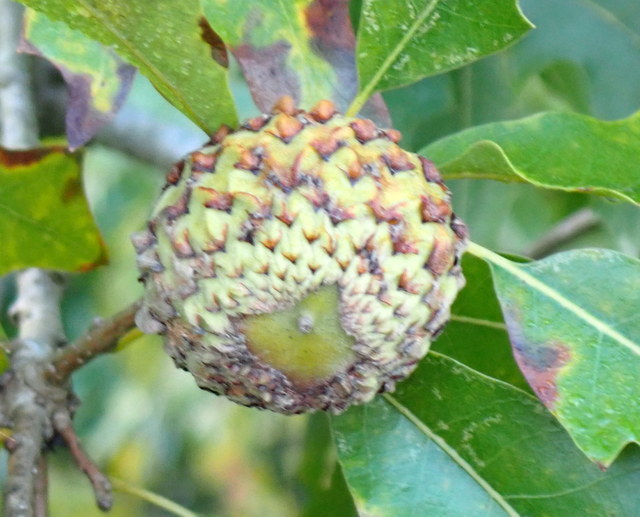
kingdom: Plantae
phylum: Tracheophyta
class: Magnoliopsida
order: Fagales
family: Fagaceae
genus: Quercus
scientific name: Quercus lyrata
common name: Overcup oak
